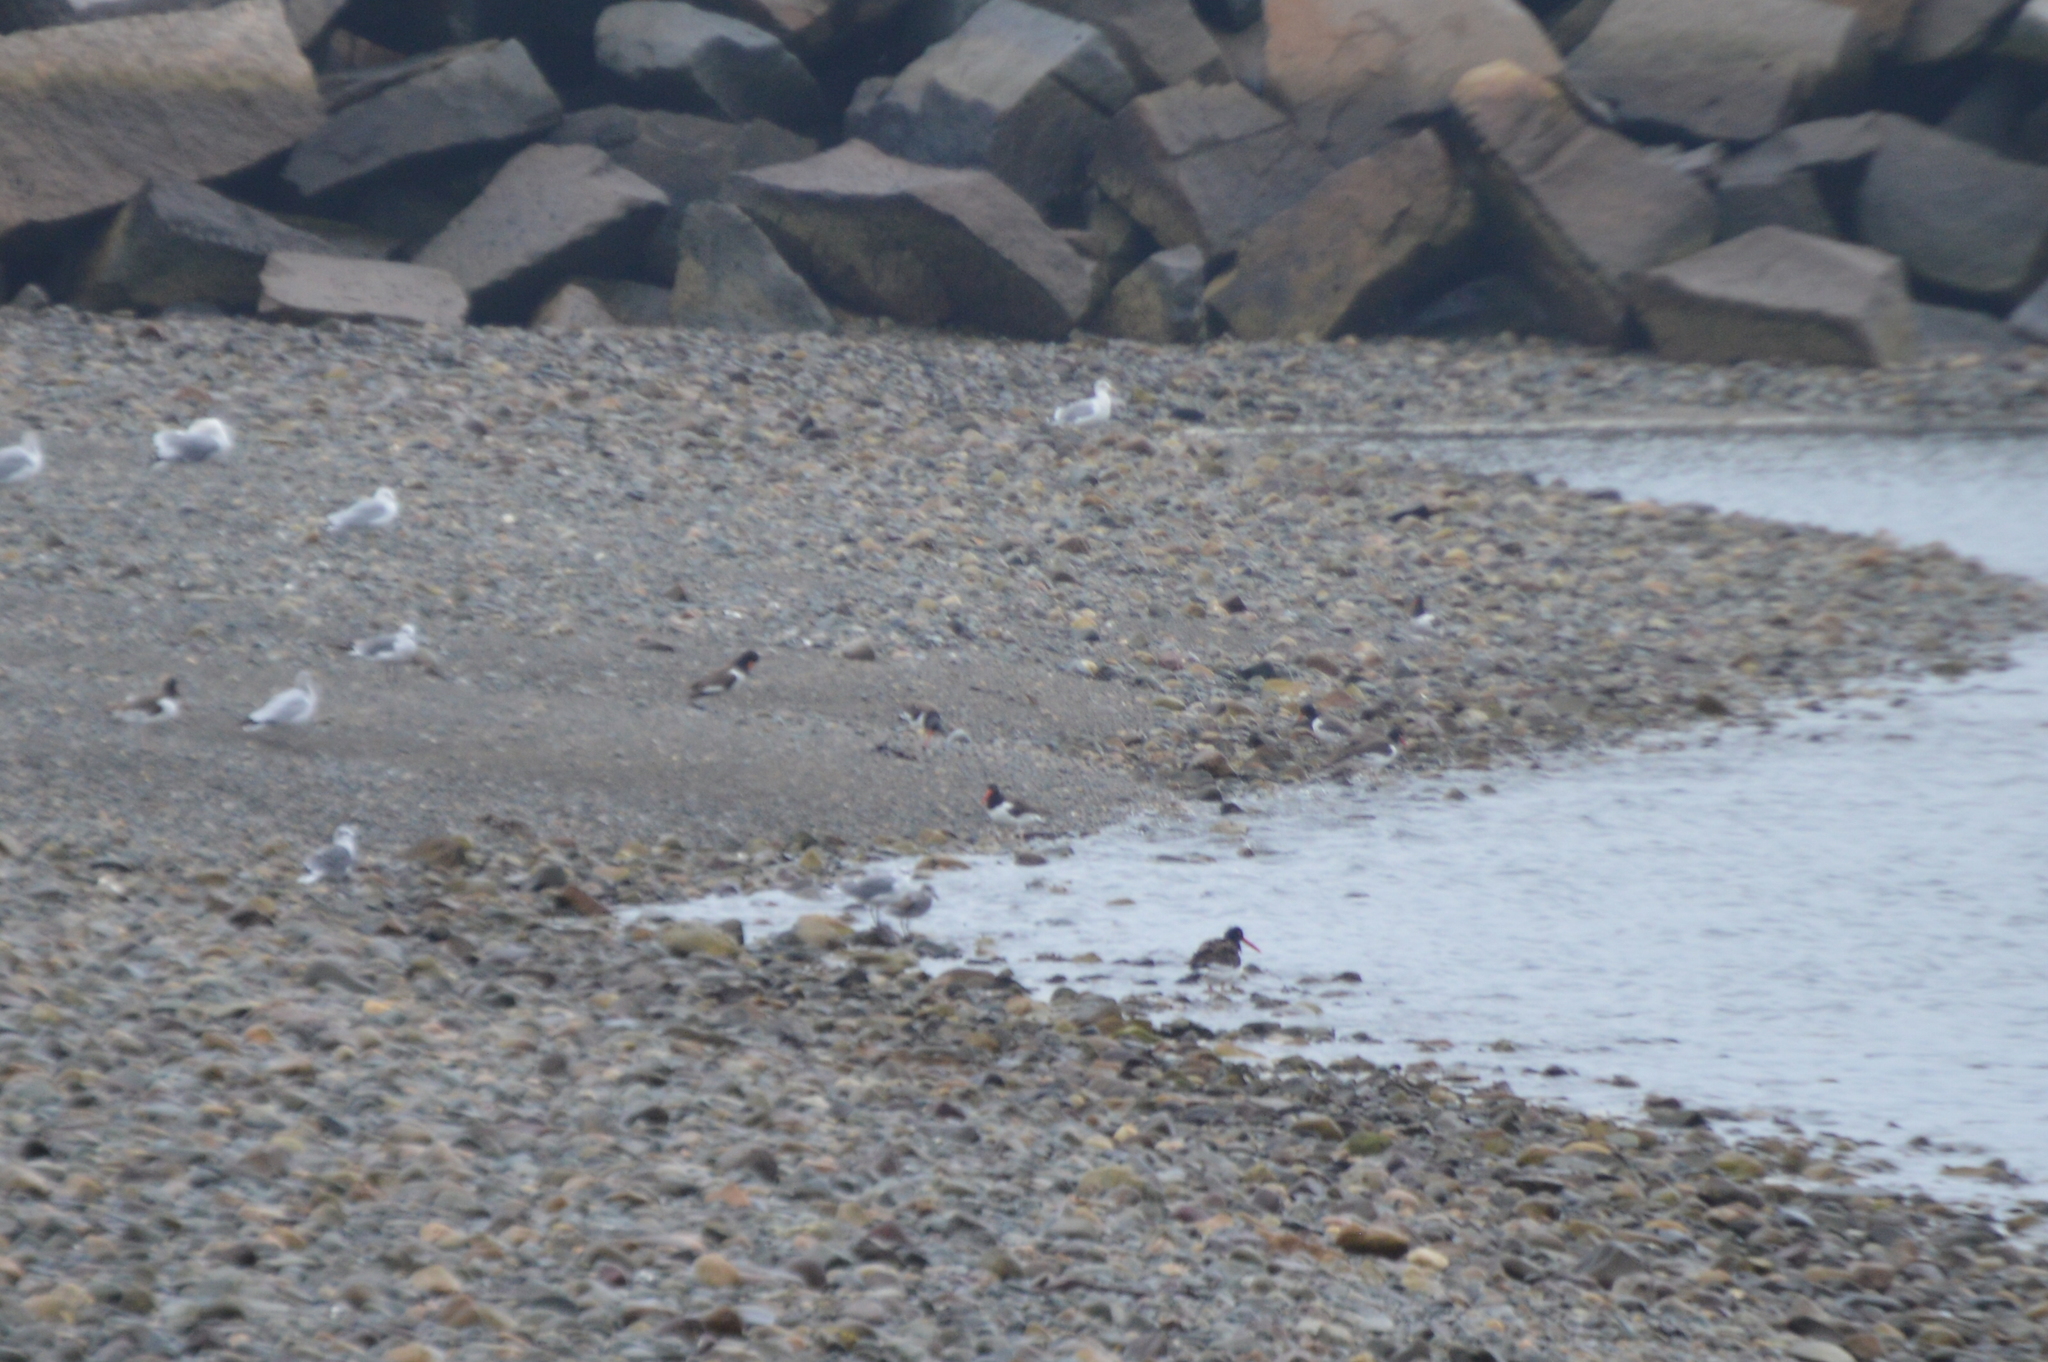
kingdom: Animalia
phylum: Chordata
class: Aves
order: Charadriiformes
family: Haematopodidae
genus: Haematopus
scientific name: Haematopus palliatus
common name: American oystercatcher
